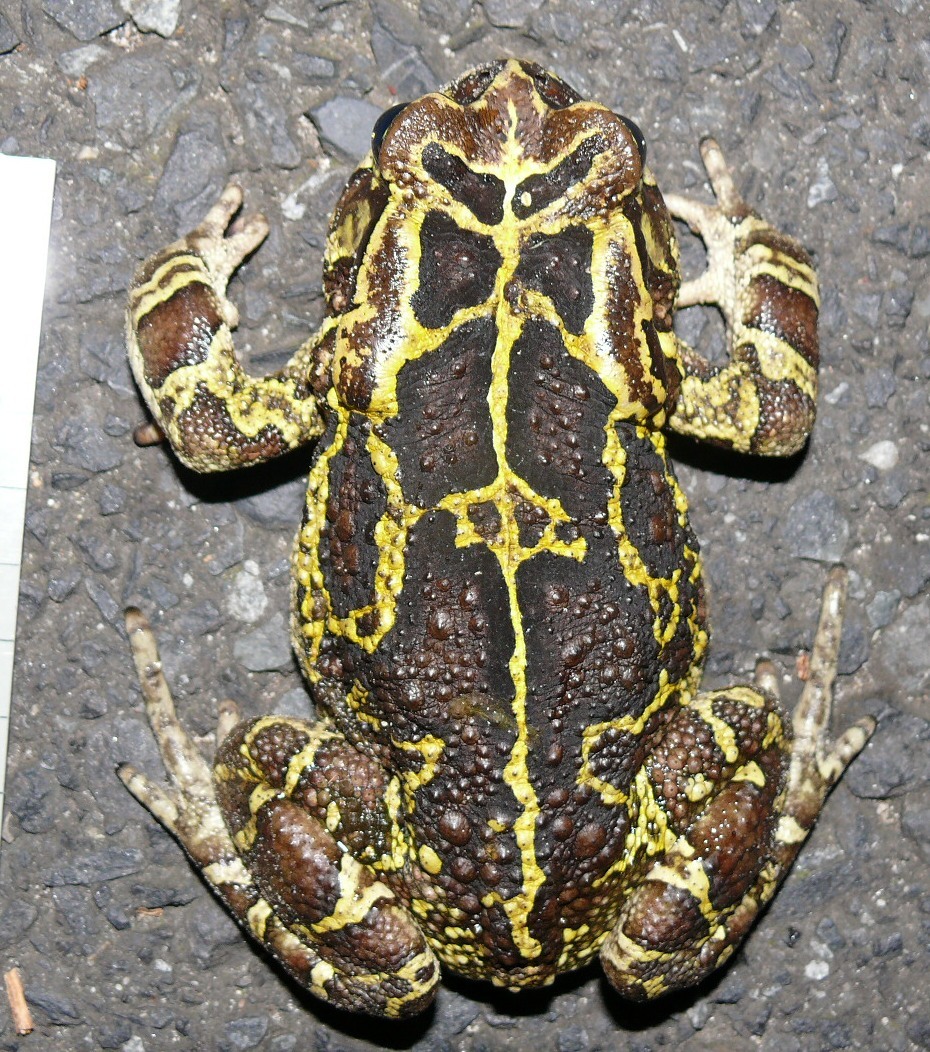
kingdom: Animalia
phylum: Chordata
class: Amphibia
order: Anura
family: Bufonidae
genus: Sclerophrys
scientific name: Sclerophrys pantherina
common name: Panther toad
